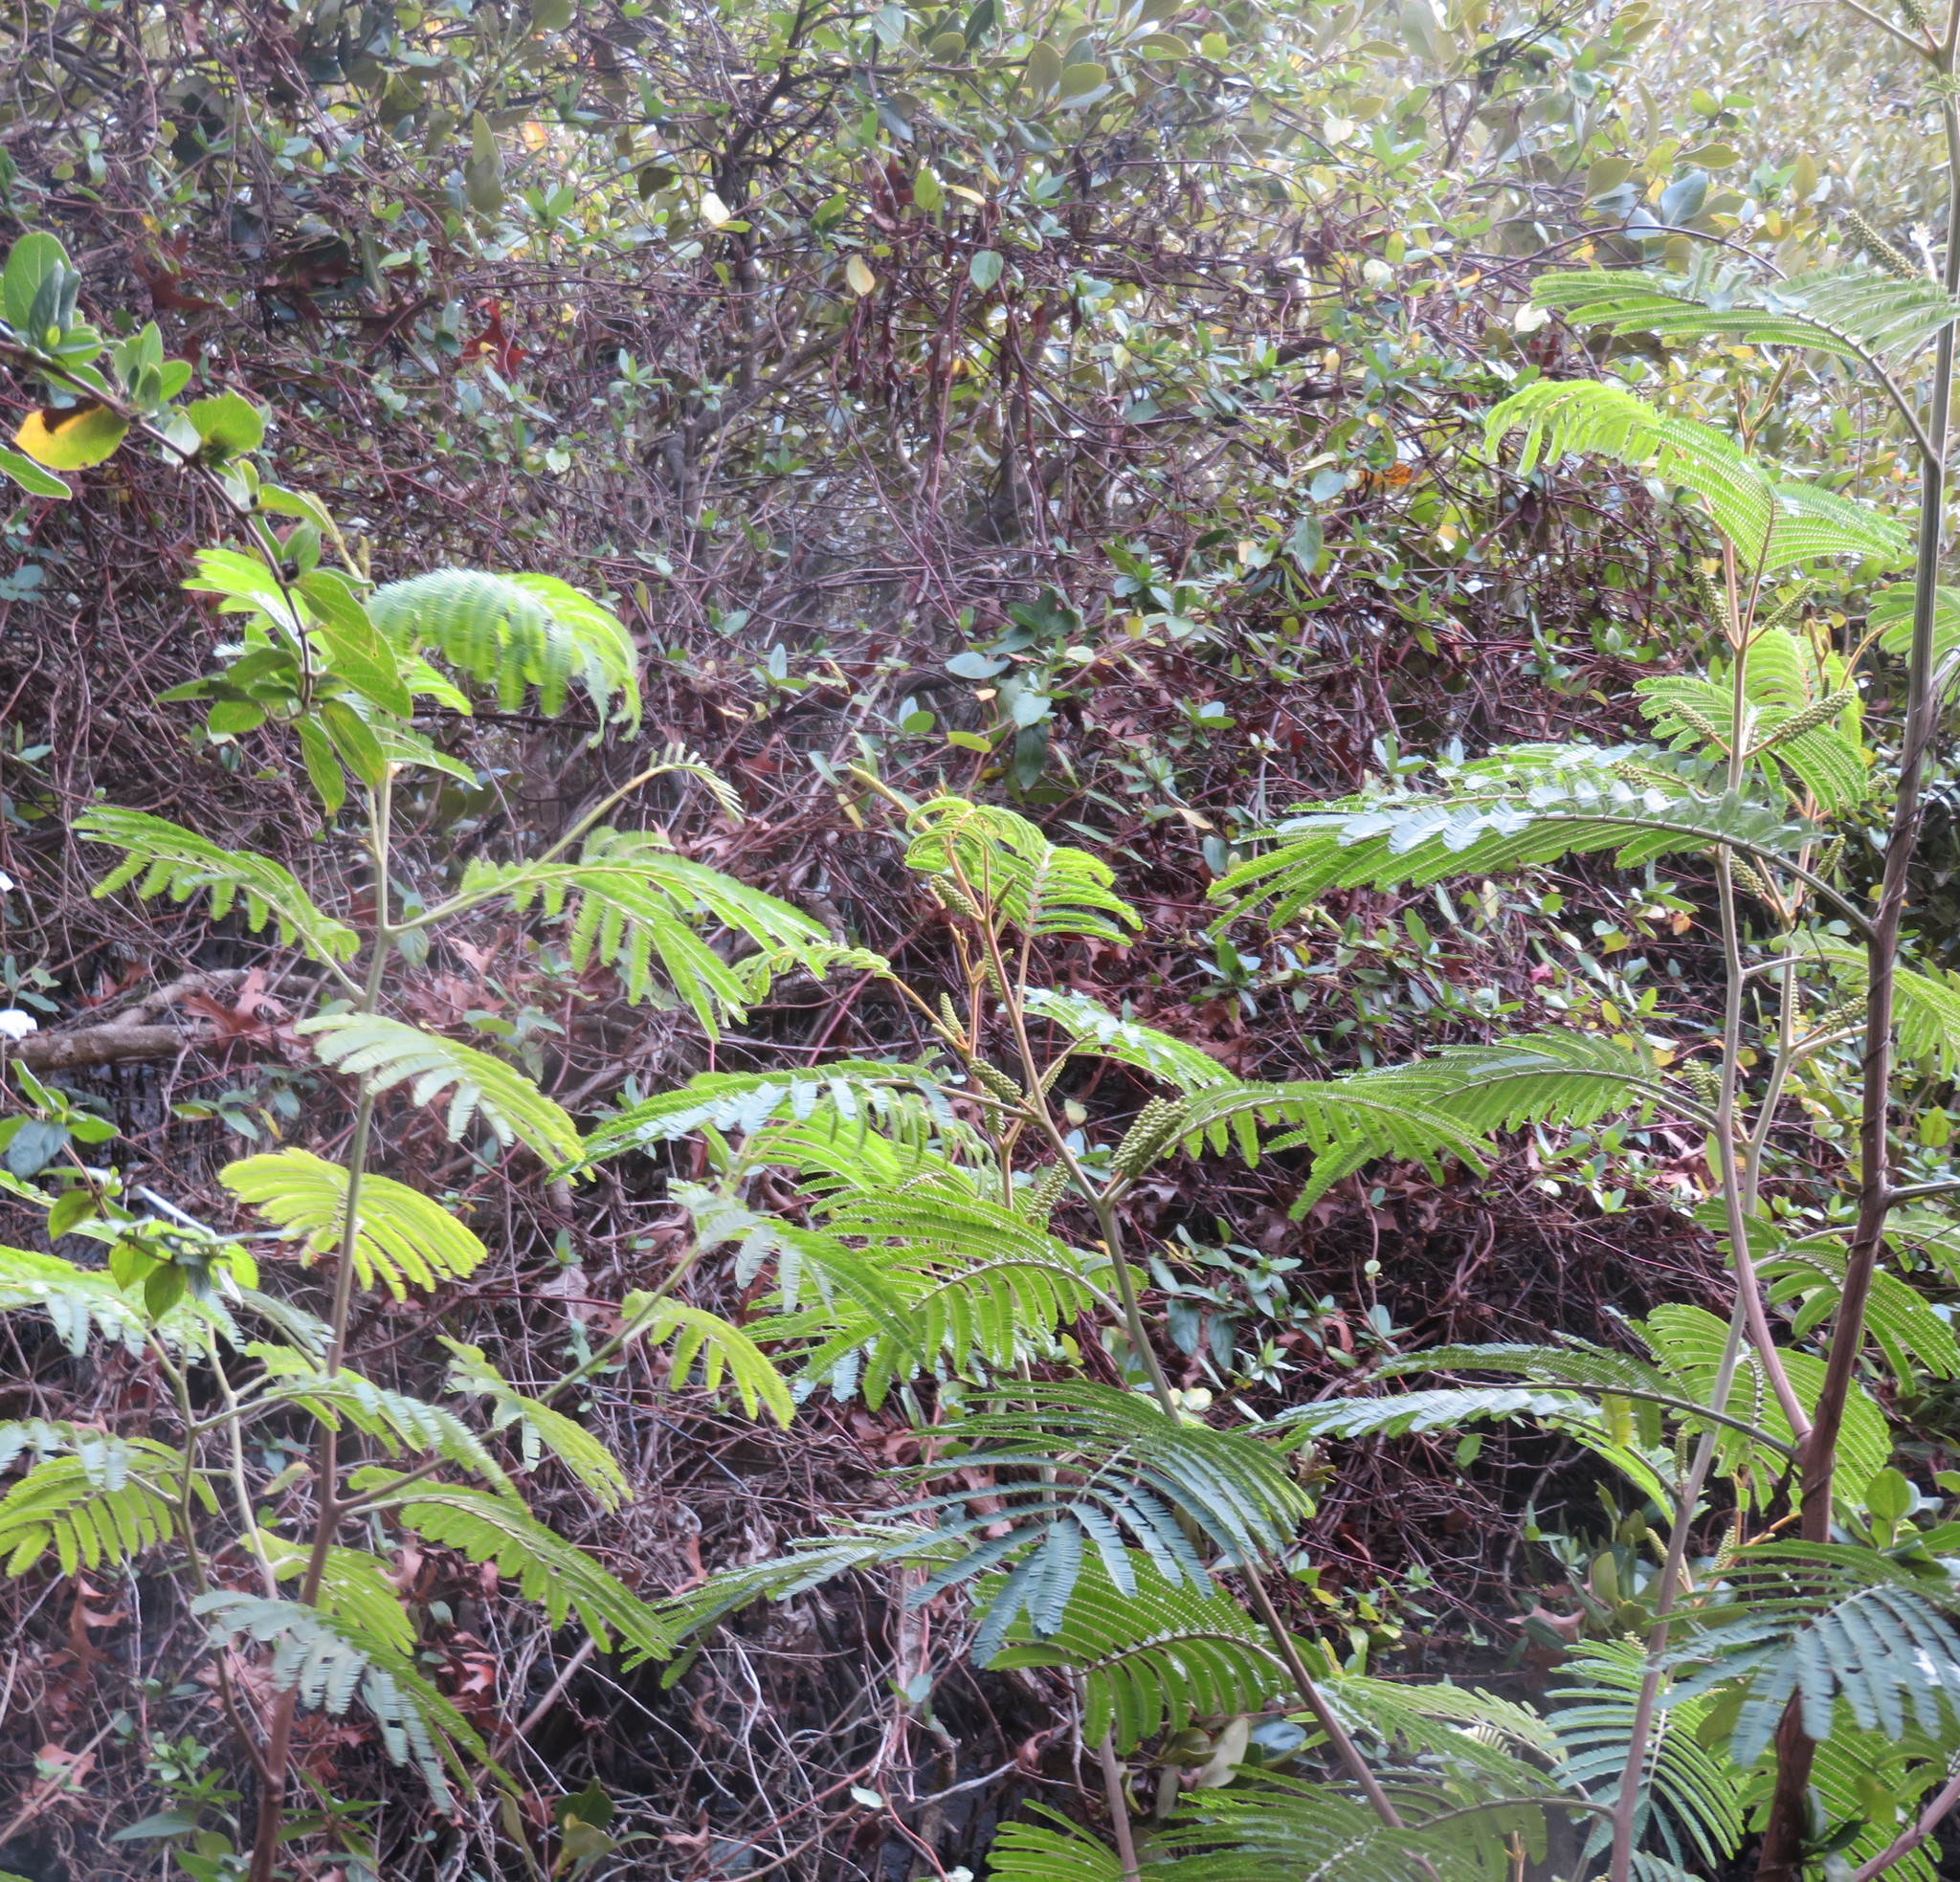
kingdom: Plantae
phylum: Tracheophyta
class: Magnoliopsida
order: Fabales
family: Fabaceae
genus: Paraserianthes
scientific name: Paraserianthes lophantha
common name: Plume albizia
